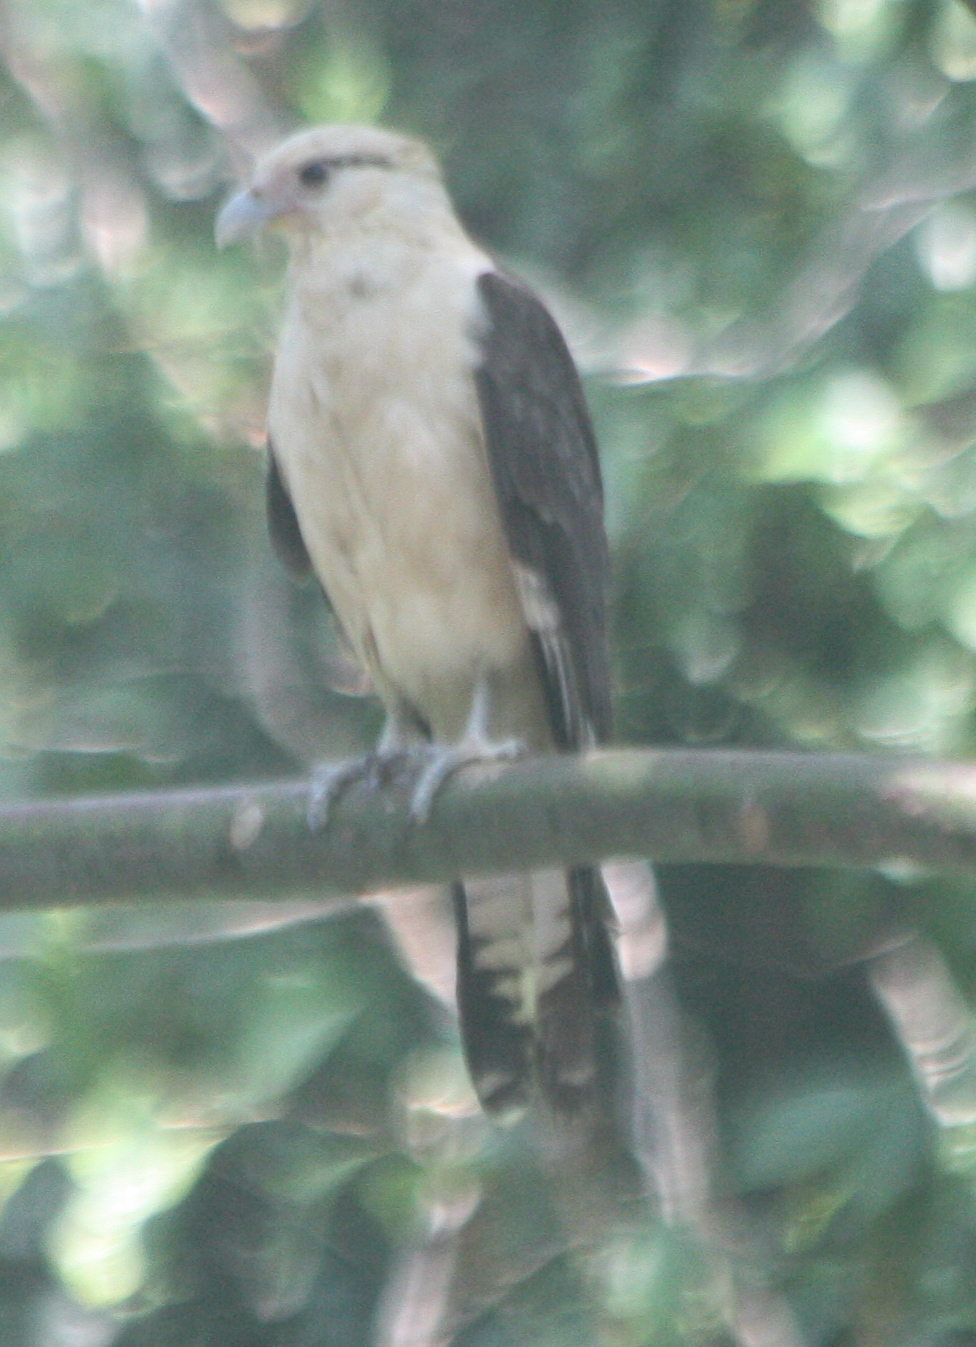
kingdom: Animalia
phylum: Chordata
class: Aves
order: Falconiformes
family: Falconidae
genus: Daptrius
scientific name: Daptrius
